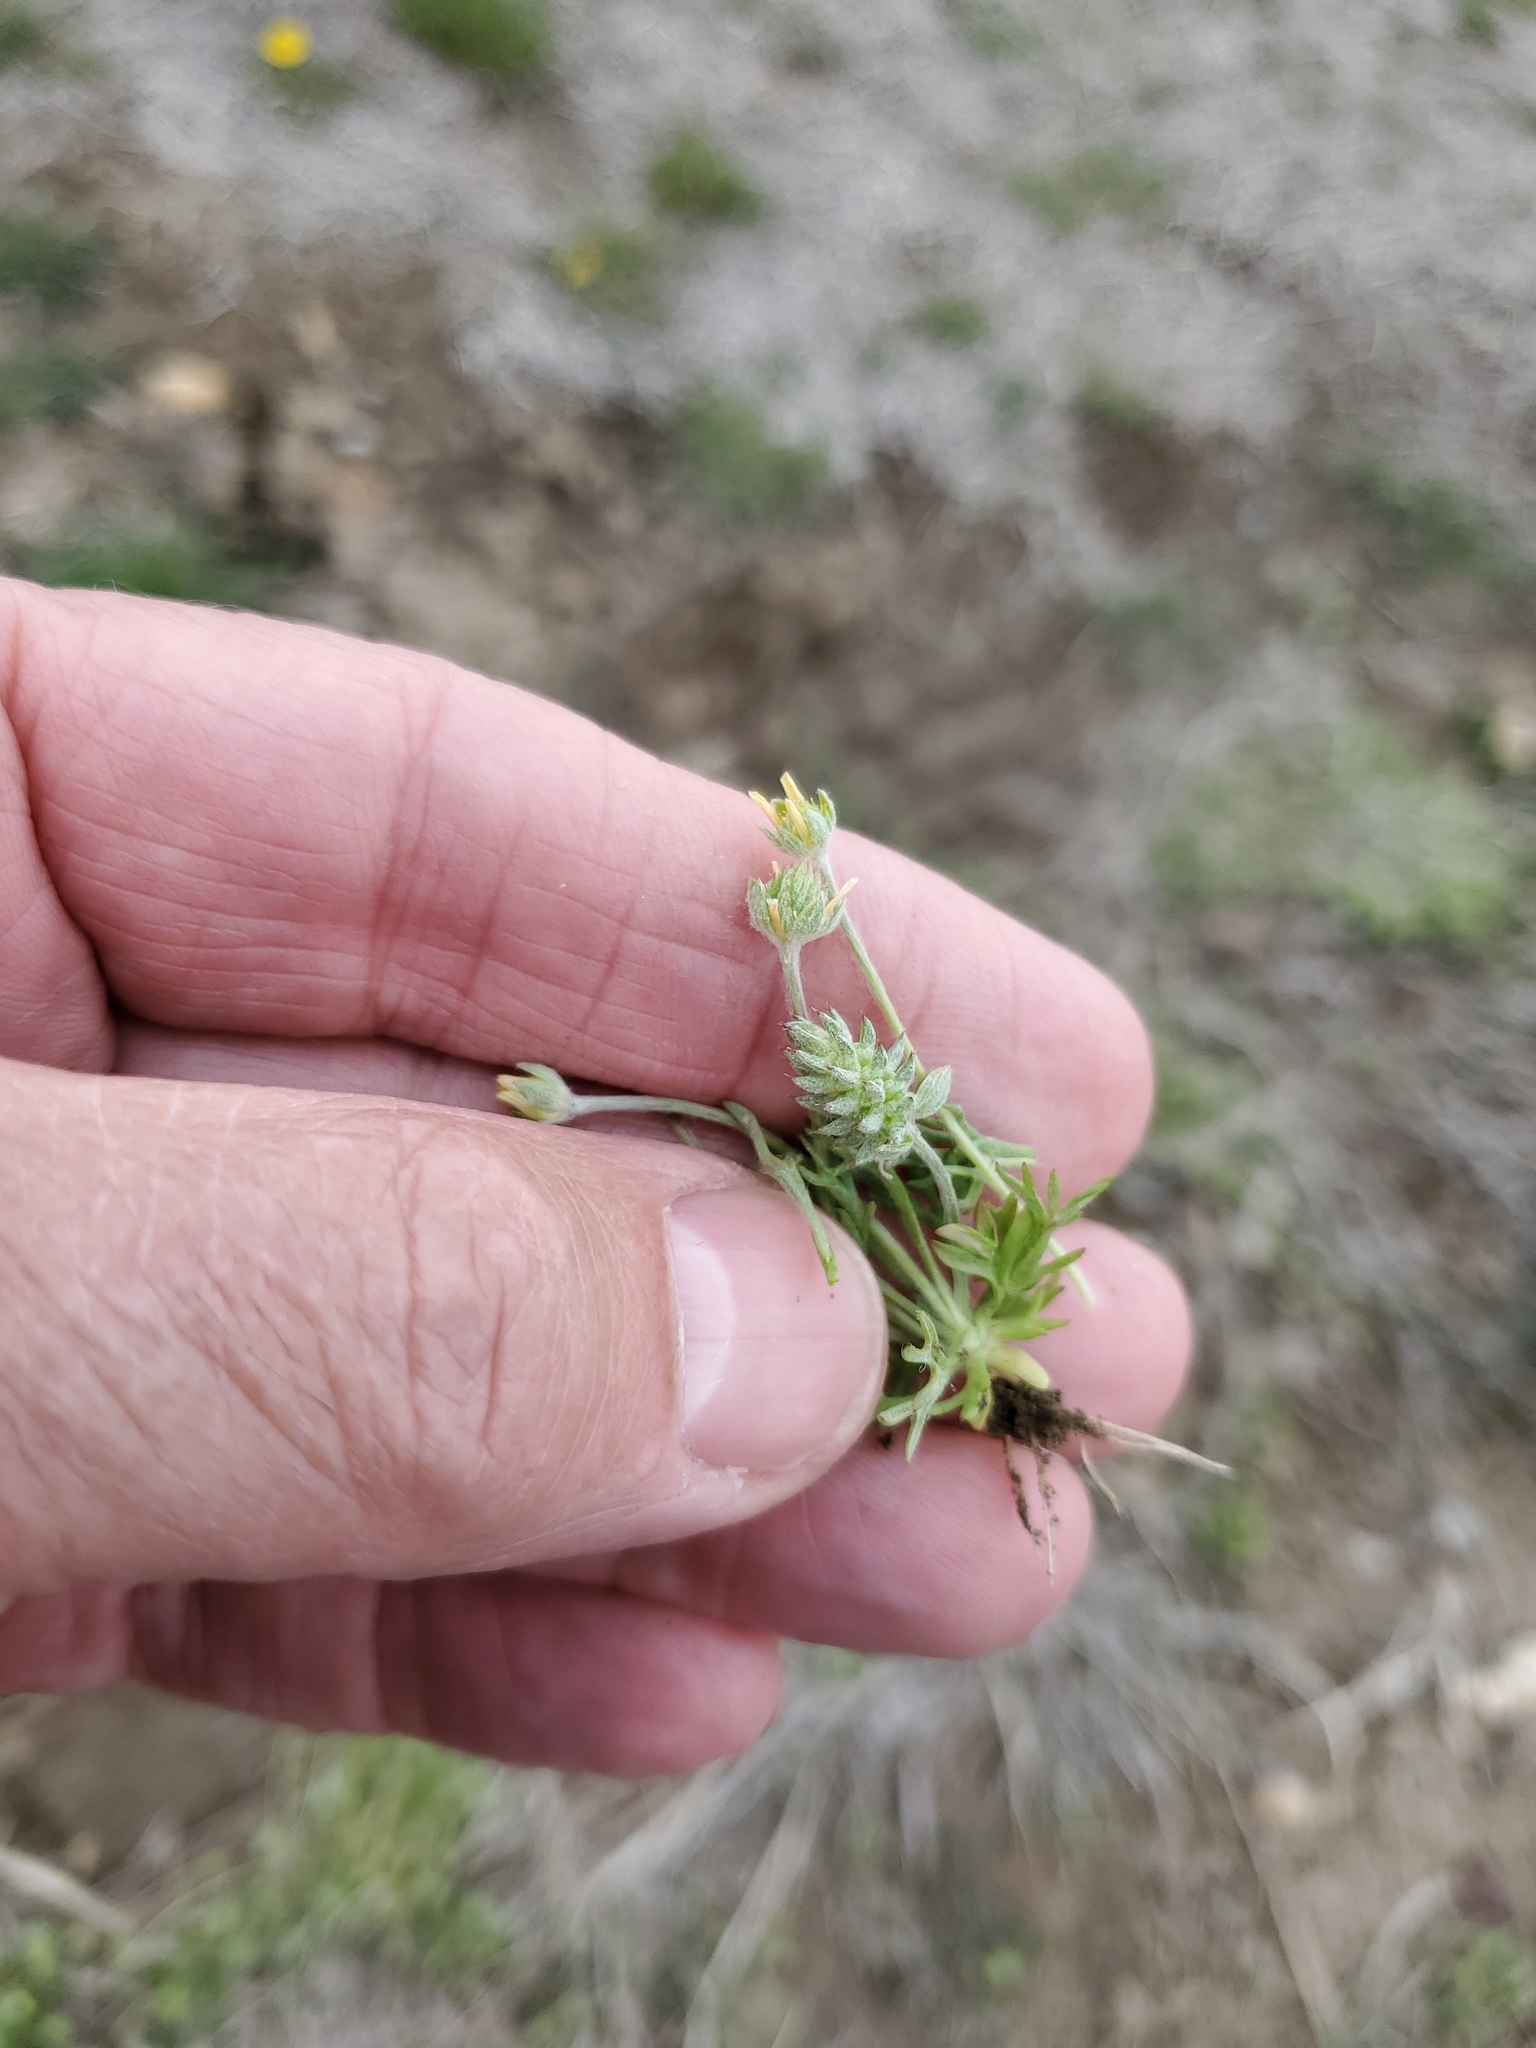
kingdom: Plantae
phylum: Tracheophyta
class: Magnoliopsida
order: Ranunculales
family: Ranunculaceae
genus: Ceratocephala
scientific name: Ceratocephala orthoceras
